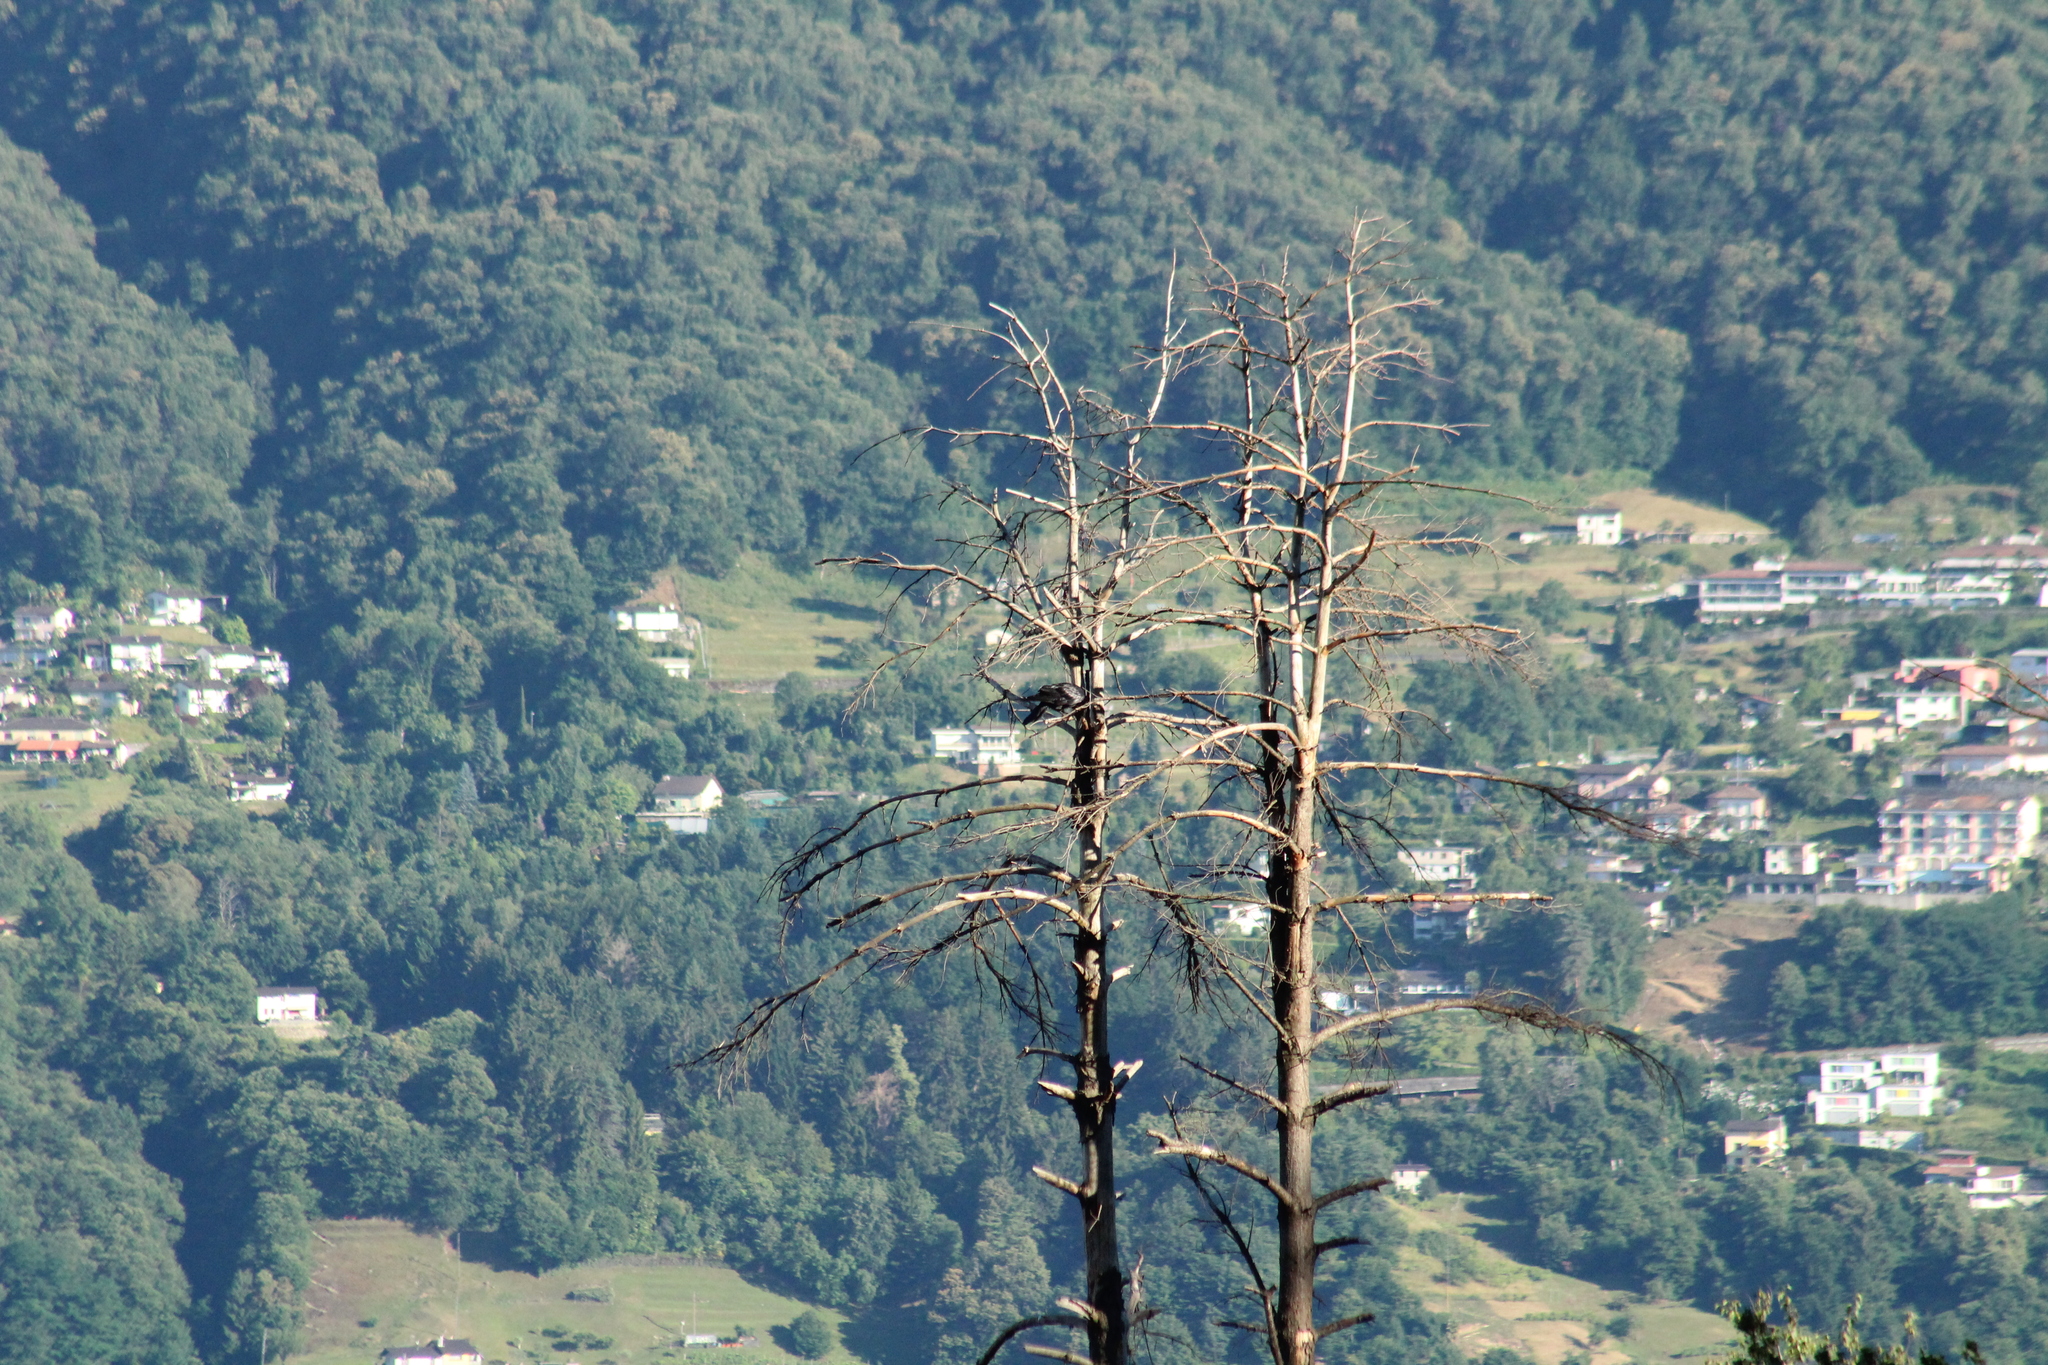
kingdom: Animalia
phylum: Chordata
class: Aves
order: Passeriformes
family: Corvidae
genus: Corvus
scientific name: Corvus
